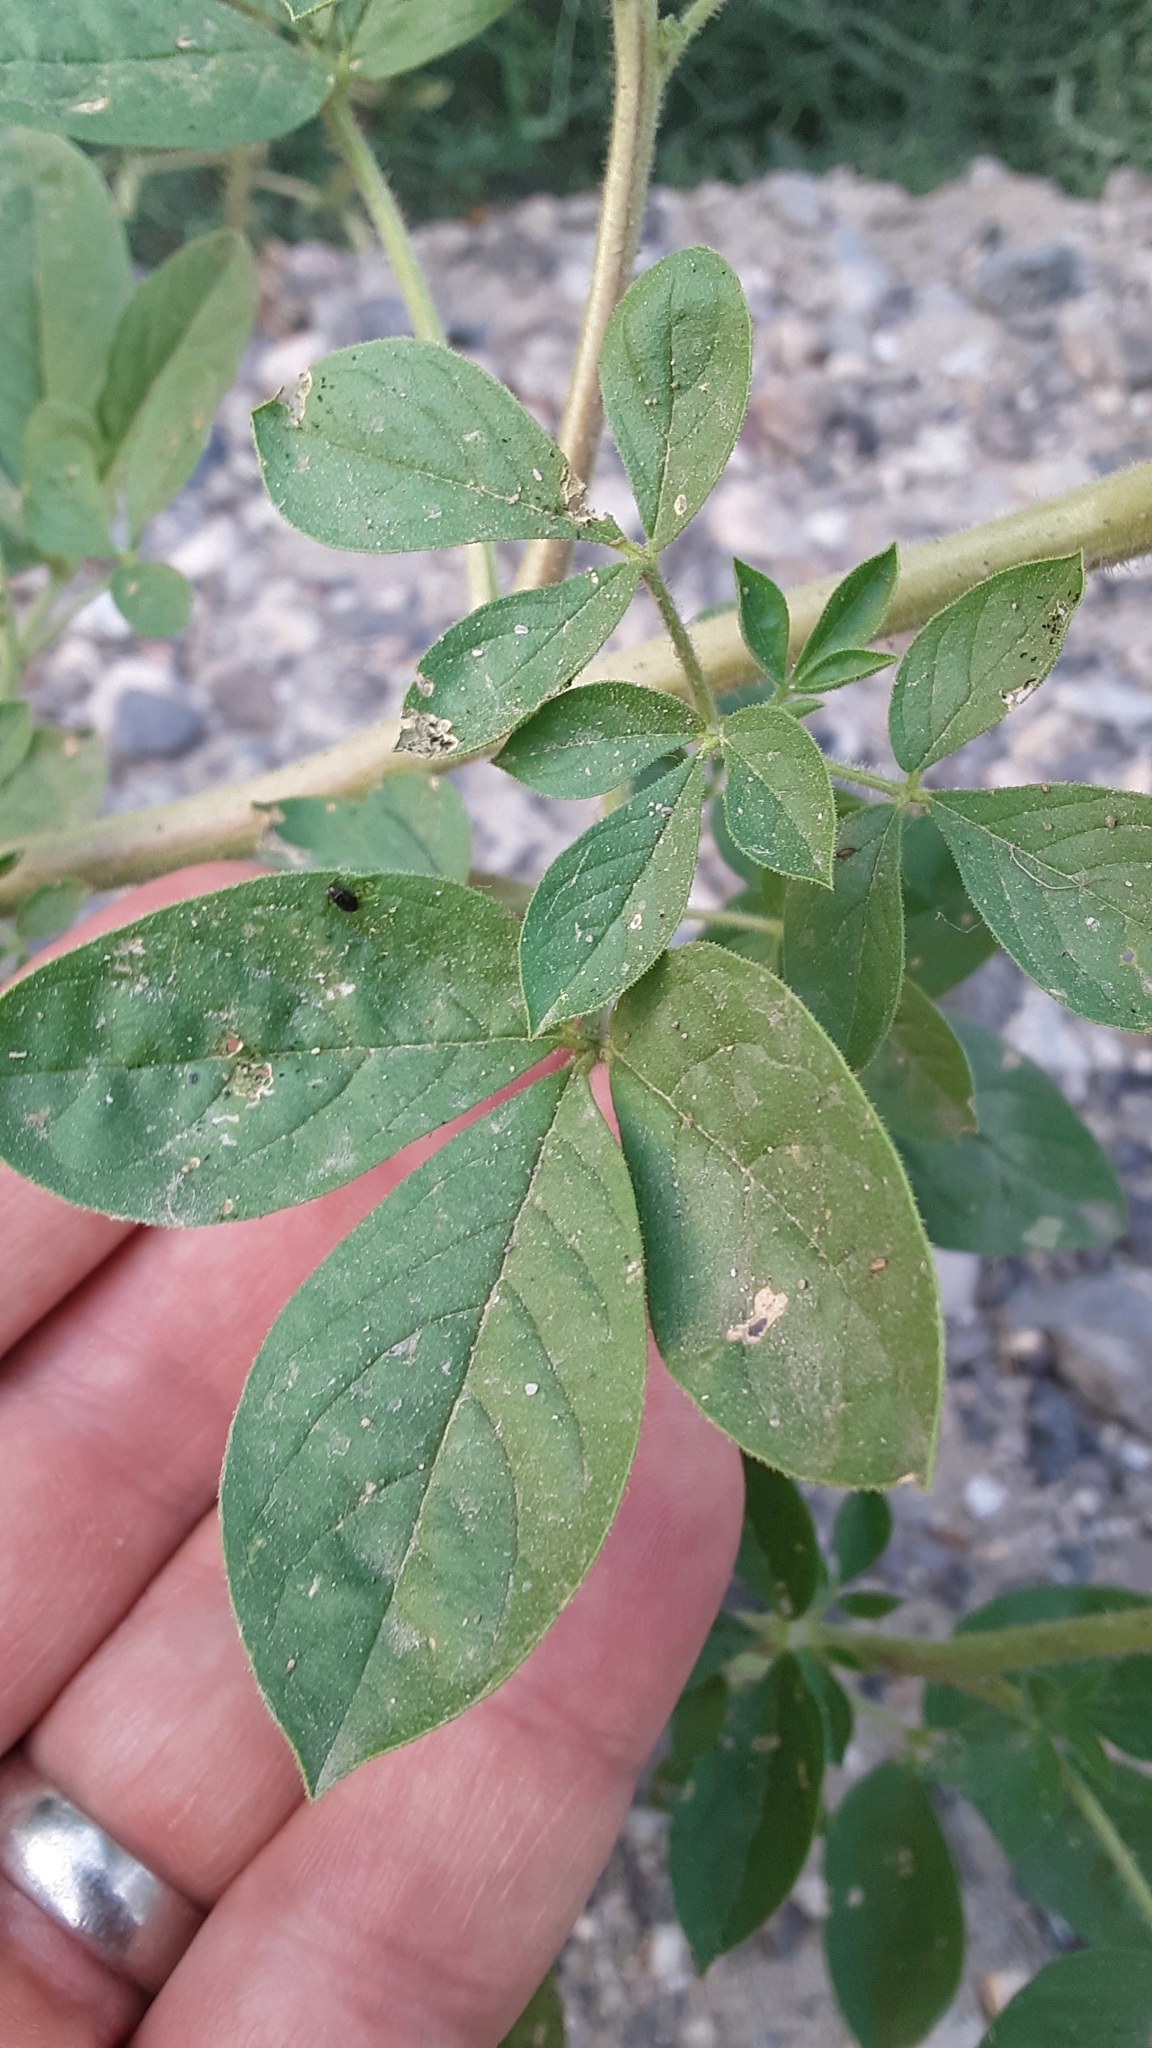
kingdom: Plantae
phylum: Tracheophyta
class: Magnoliopsida
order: Brassicales
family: Cleomaceae
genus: Polanisia
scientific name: Polanisia dodecandra
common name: Clammyweed
